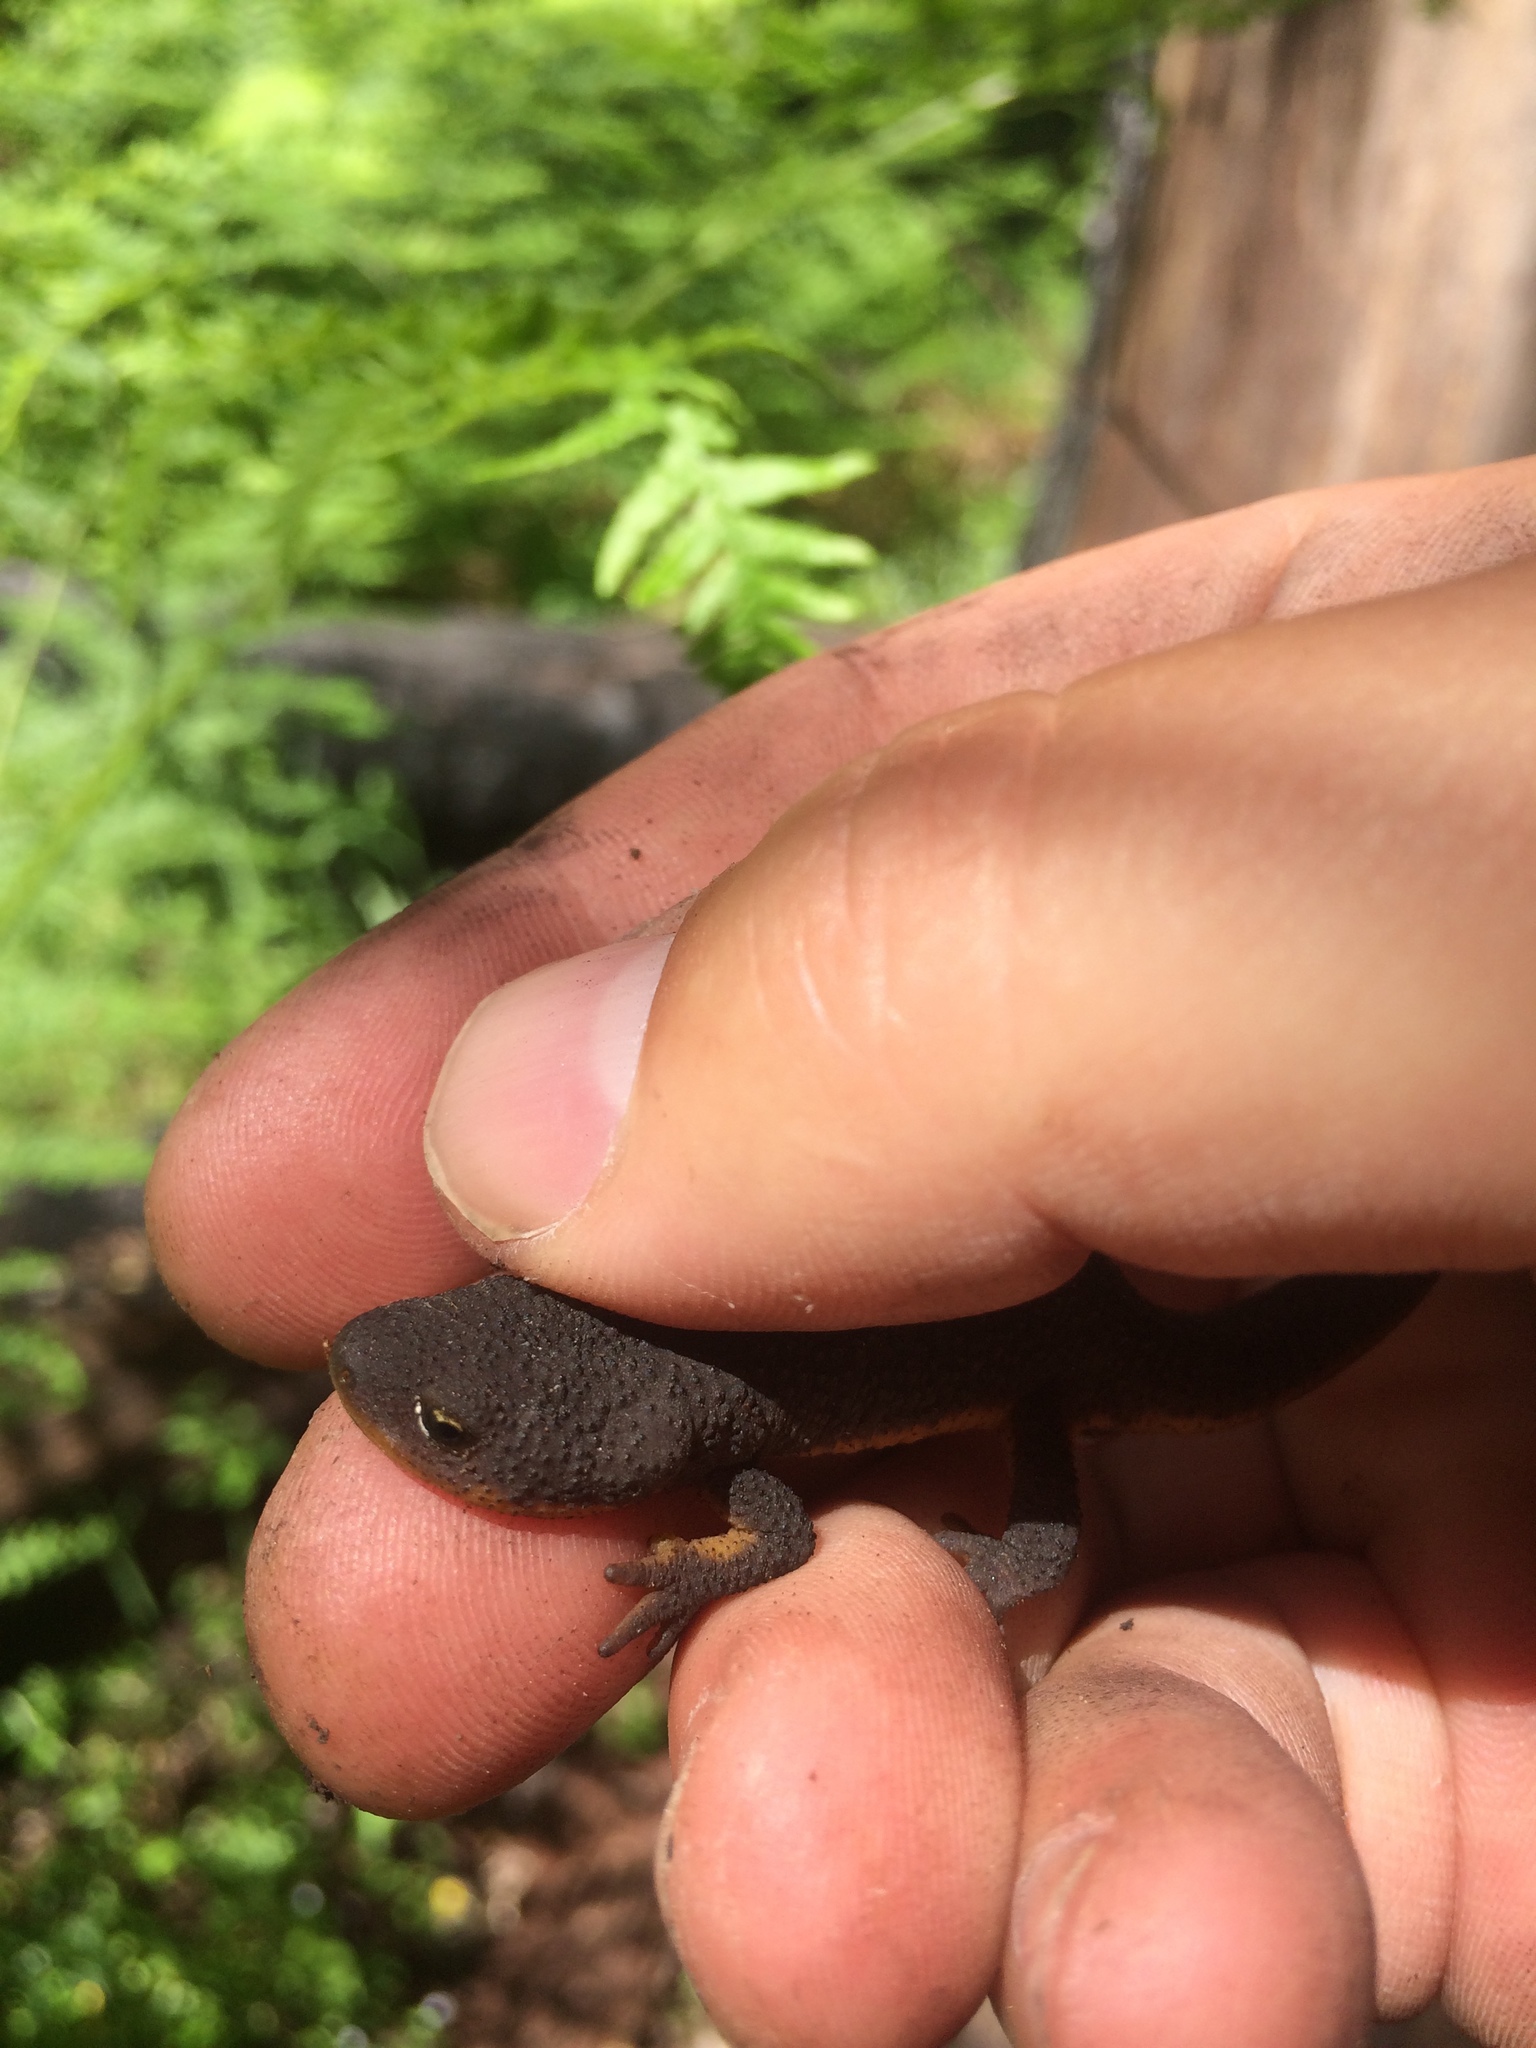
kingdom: Animalia
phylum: Chordata
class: Amphibia
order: Caudata
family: Salamandridae
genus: Taricha
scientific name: Taricha granulosa
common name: Roughskin newt
